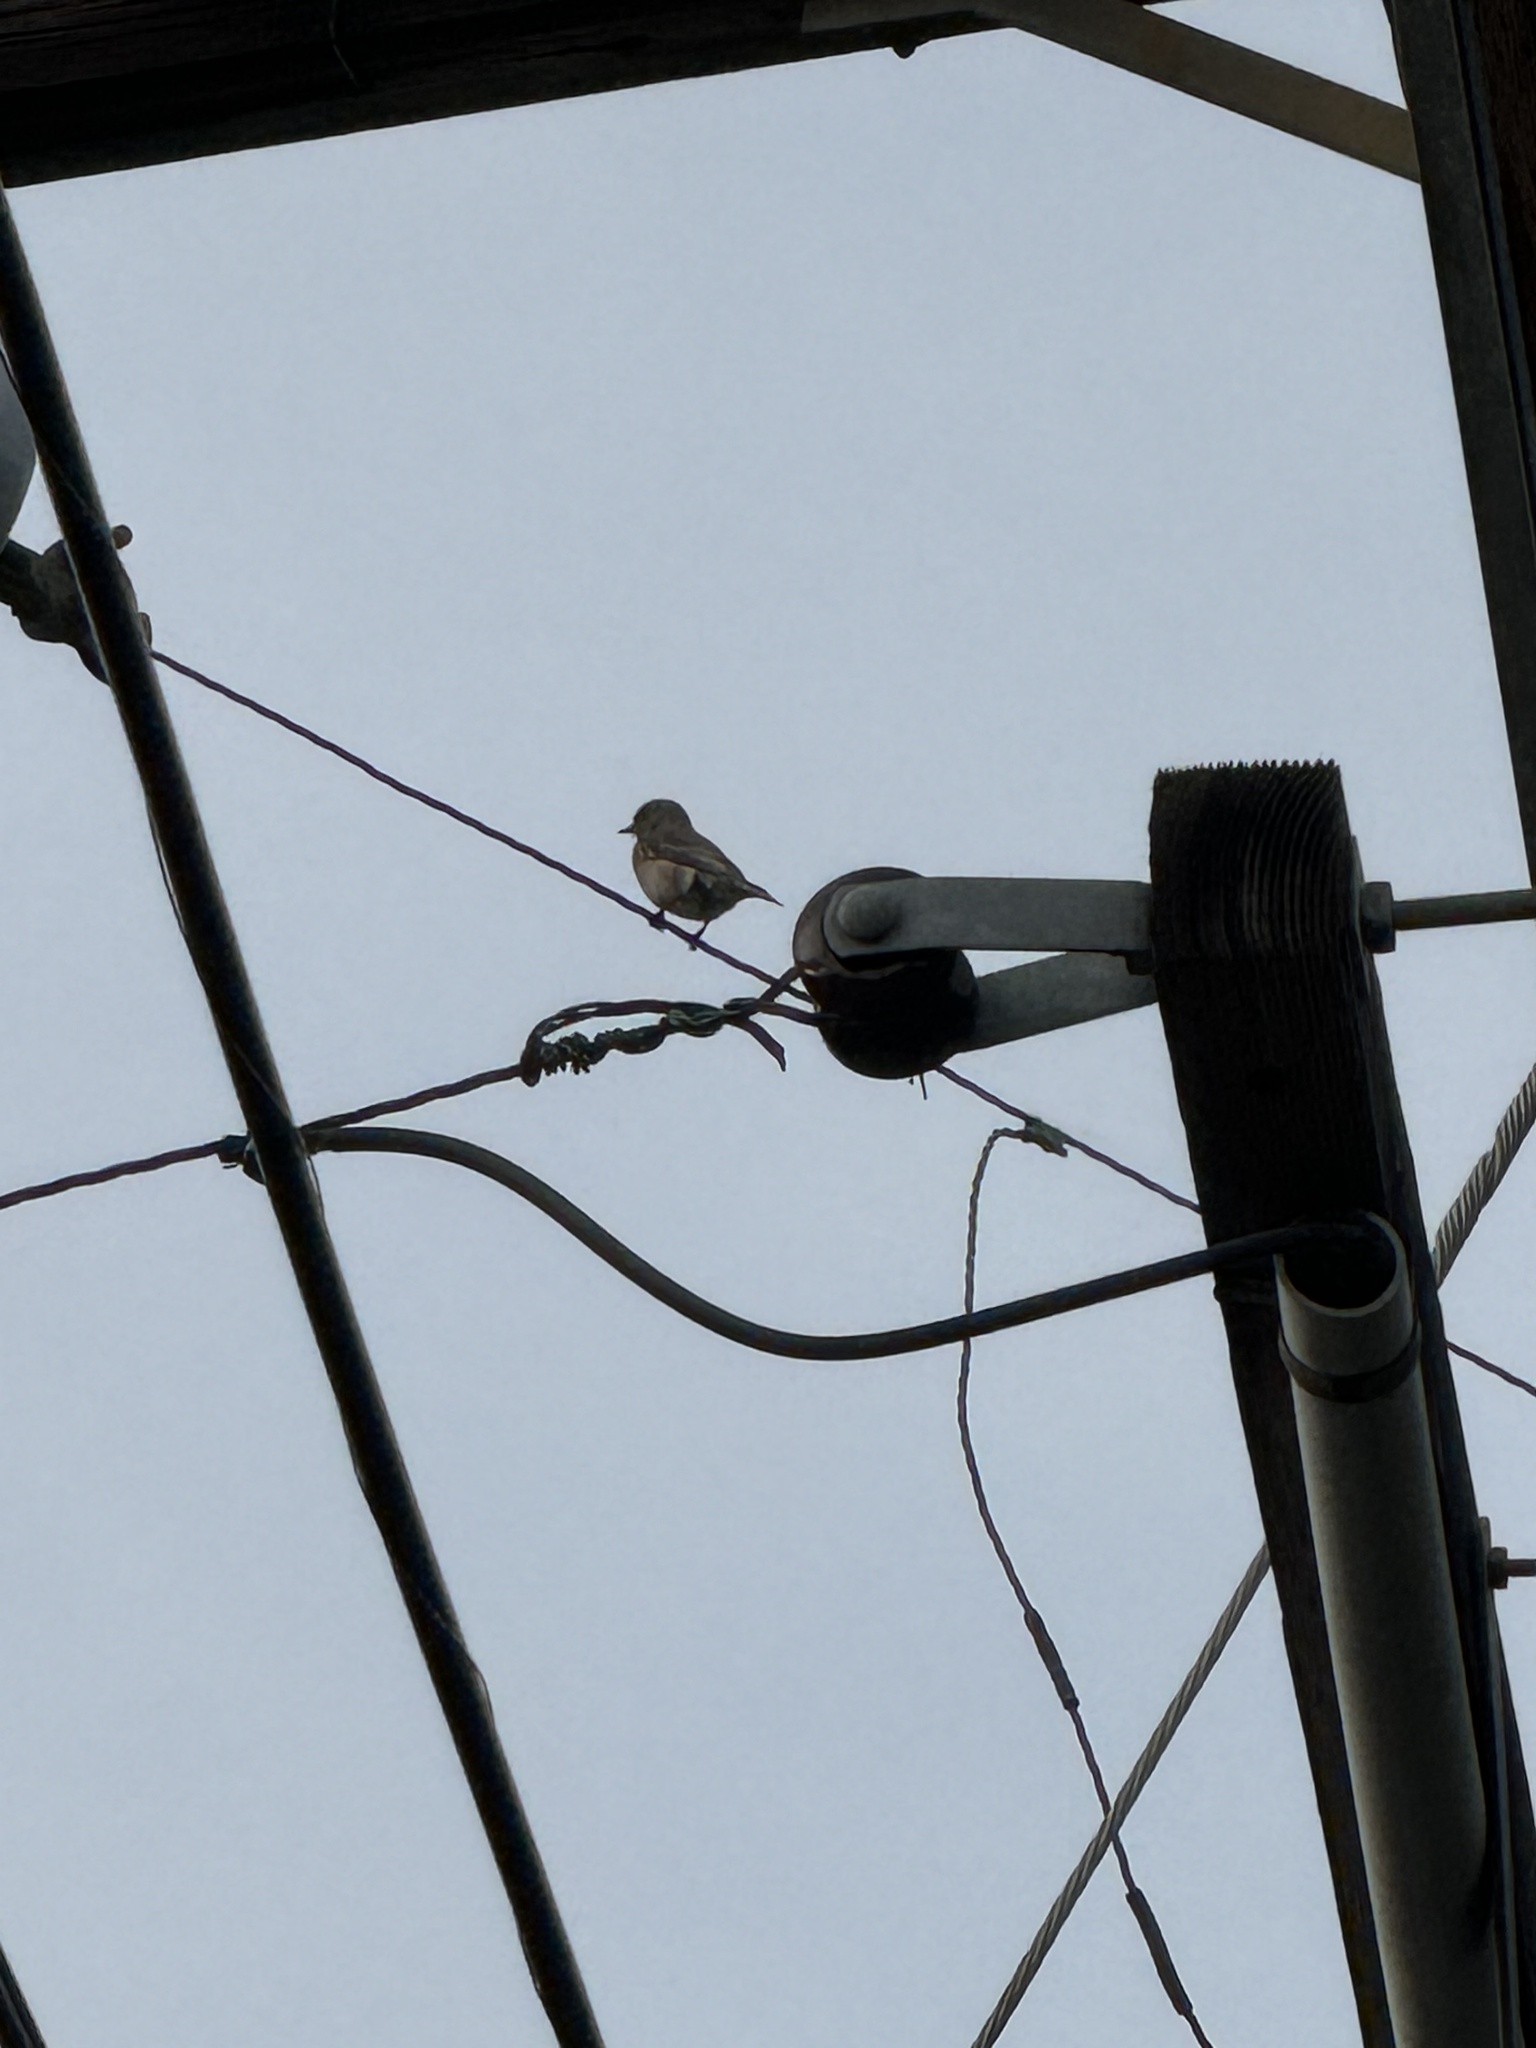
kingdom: Animalia
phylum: Chordata
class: Aves
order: Passeriformes
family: Turdidae
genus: Sialia
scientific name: Sialia mexicana
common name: Western bluebird
